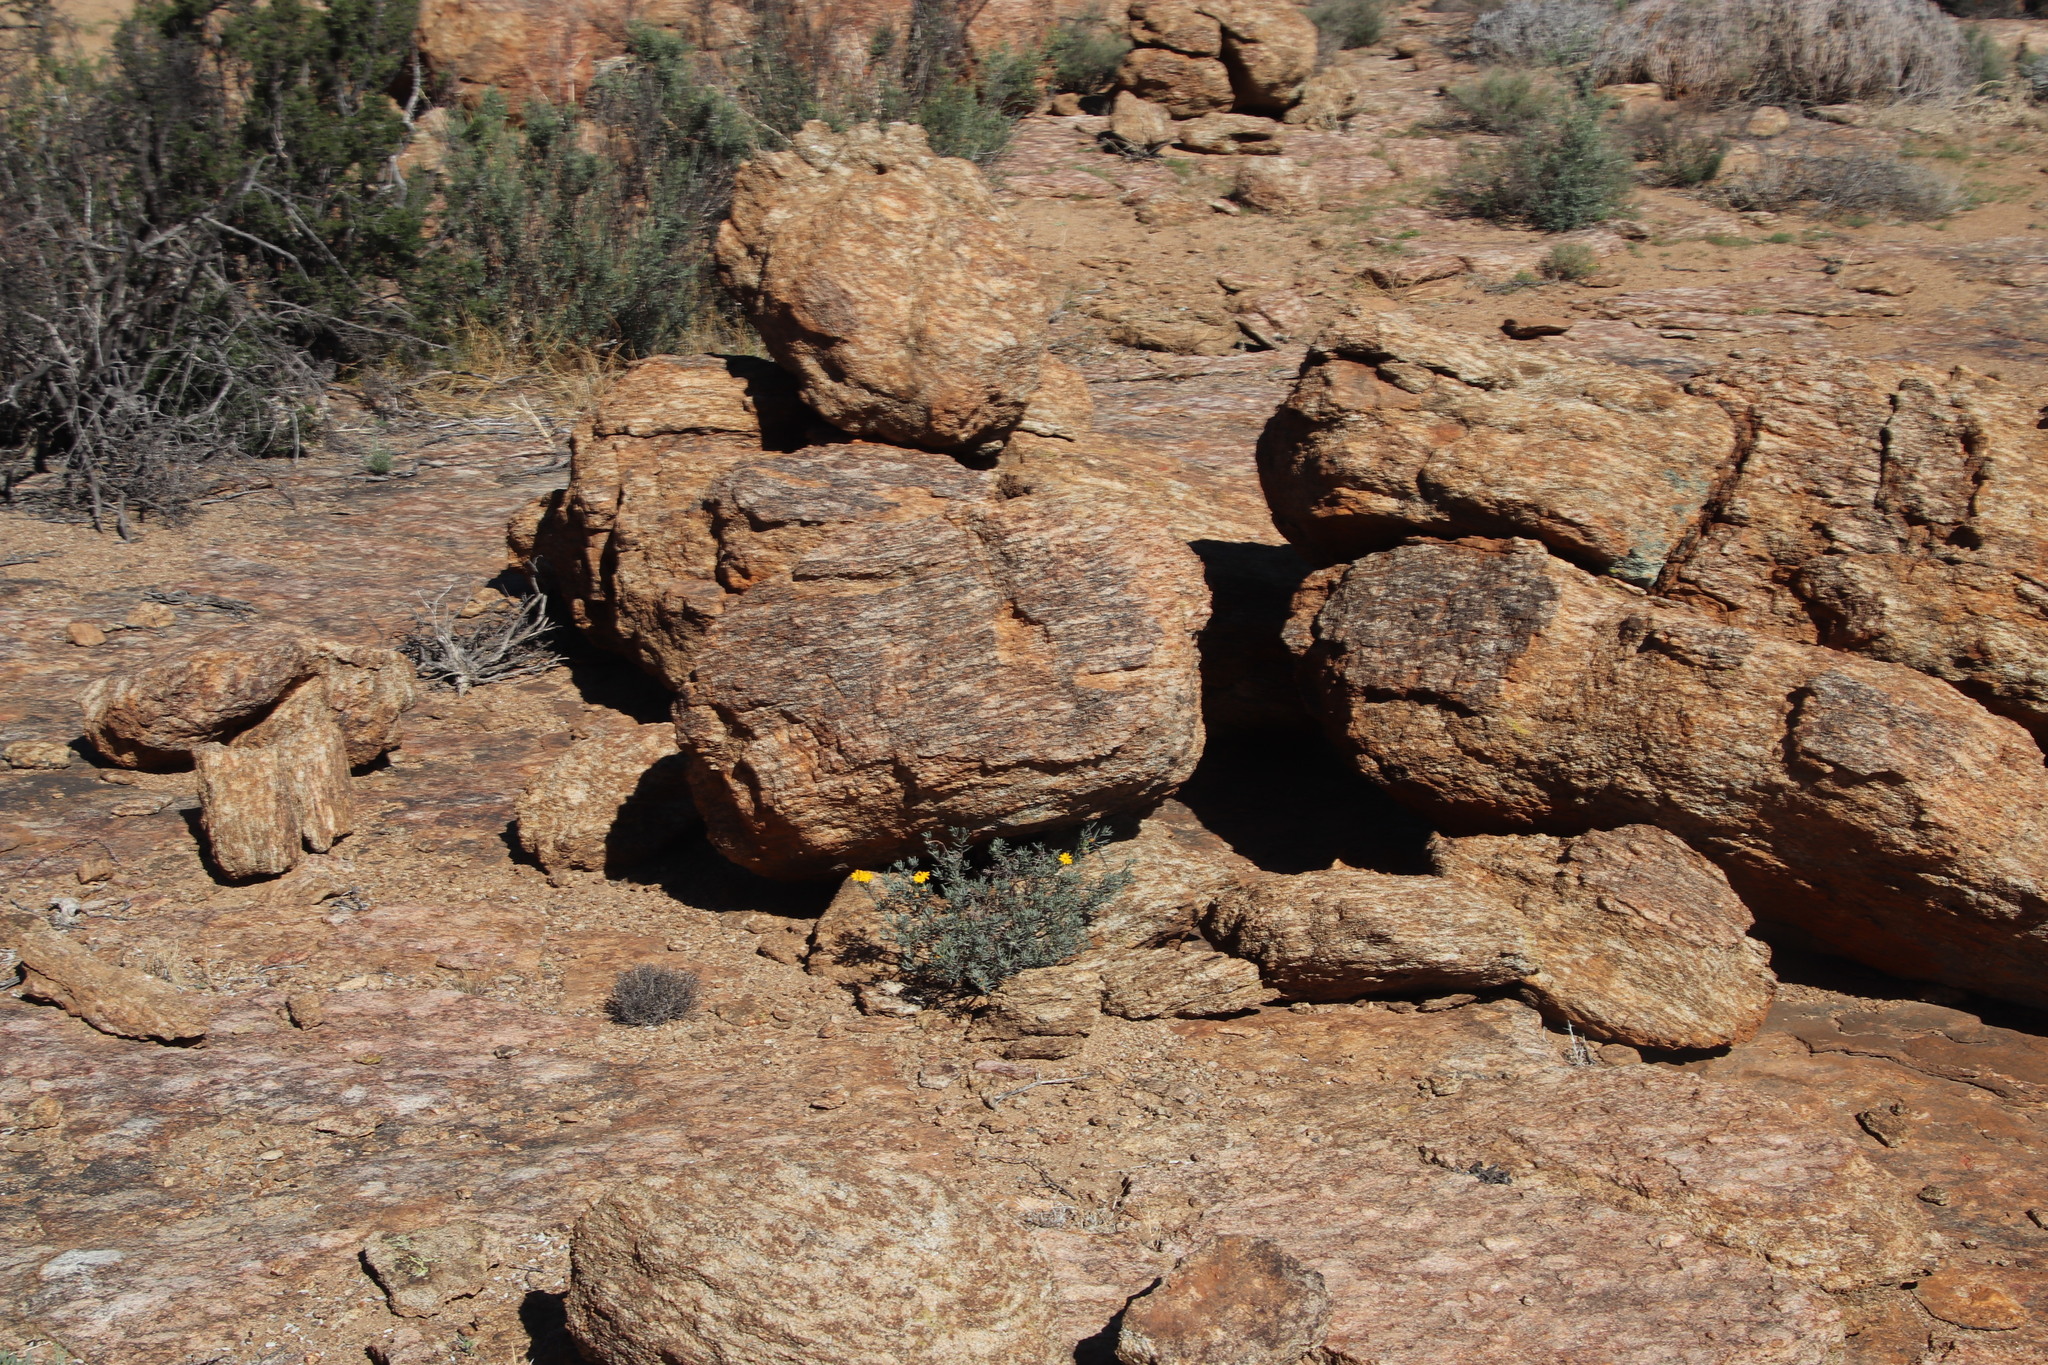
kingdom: Plantae
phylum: Tracheophyta
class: Magnoliopsida
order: Asterales
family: Asteraceae
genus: Crassothonna
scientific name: Crassothonna cylindrica
